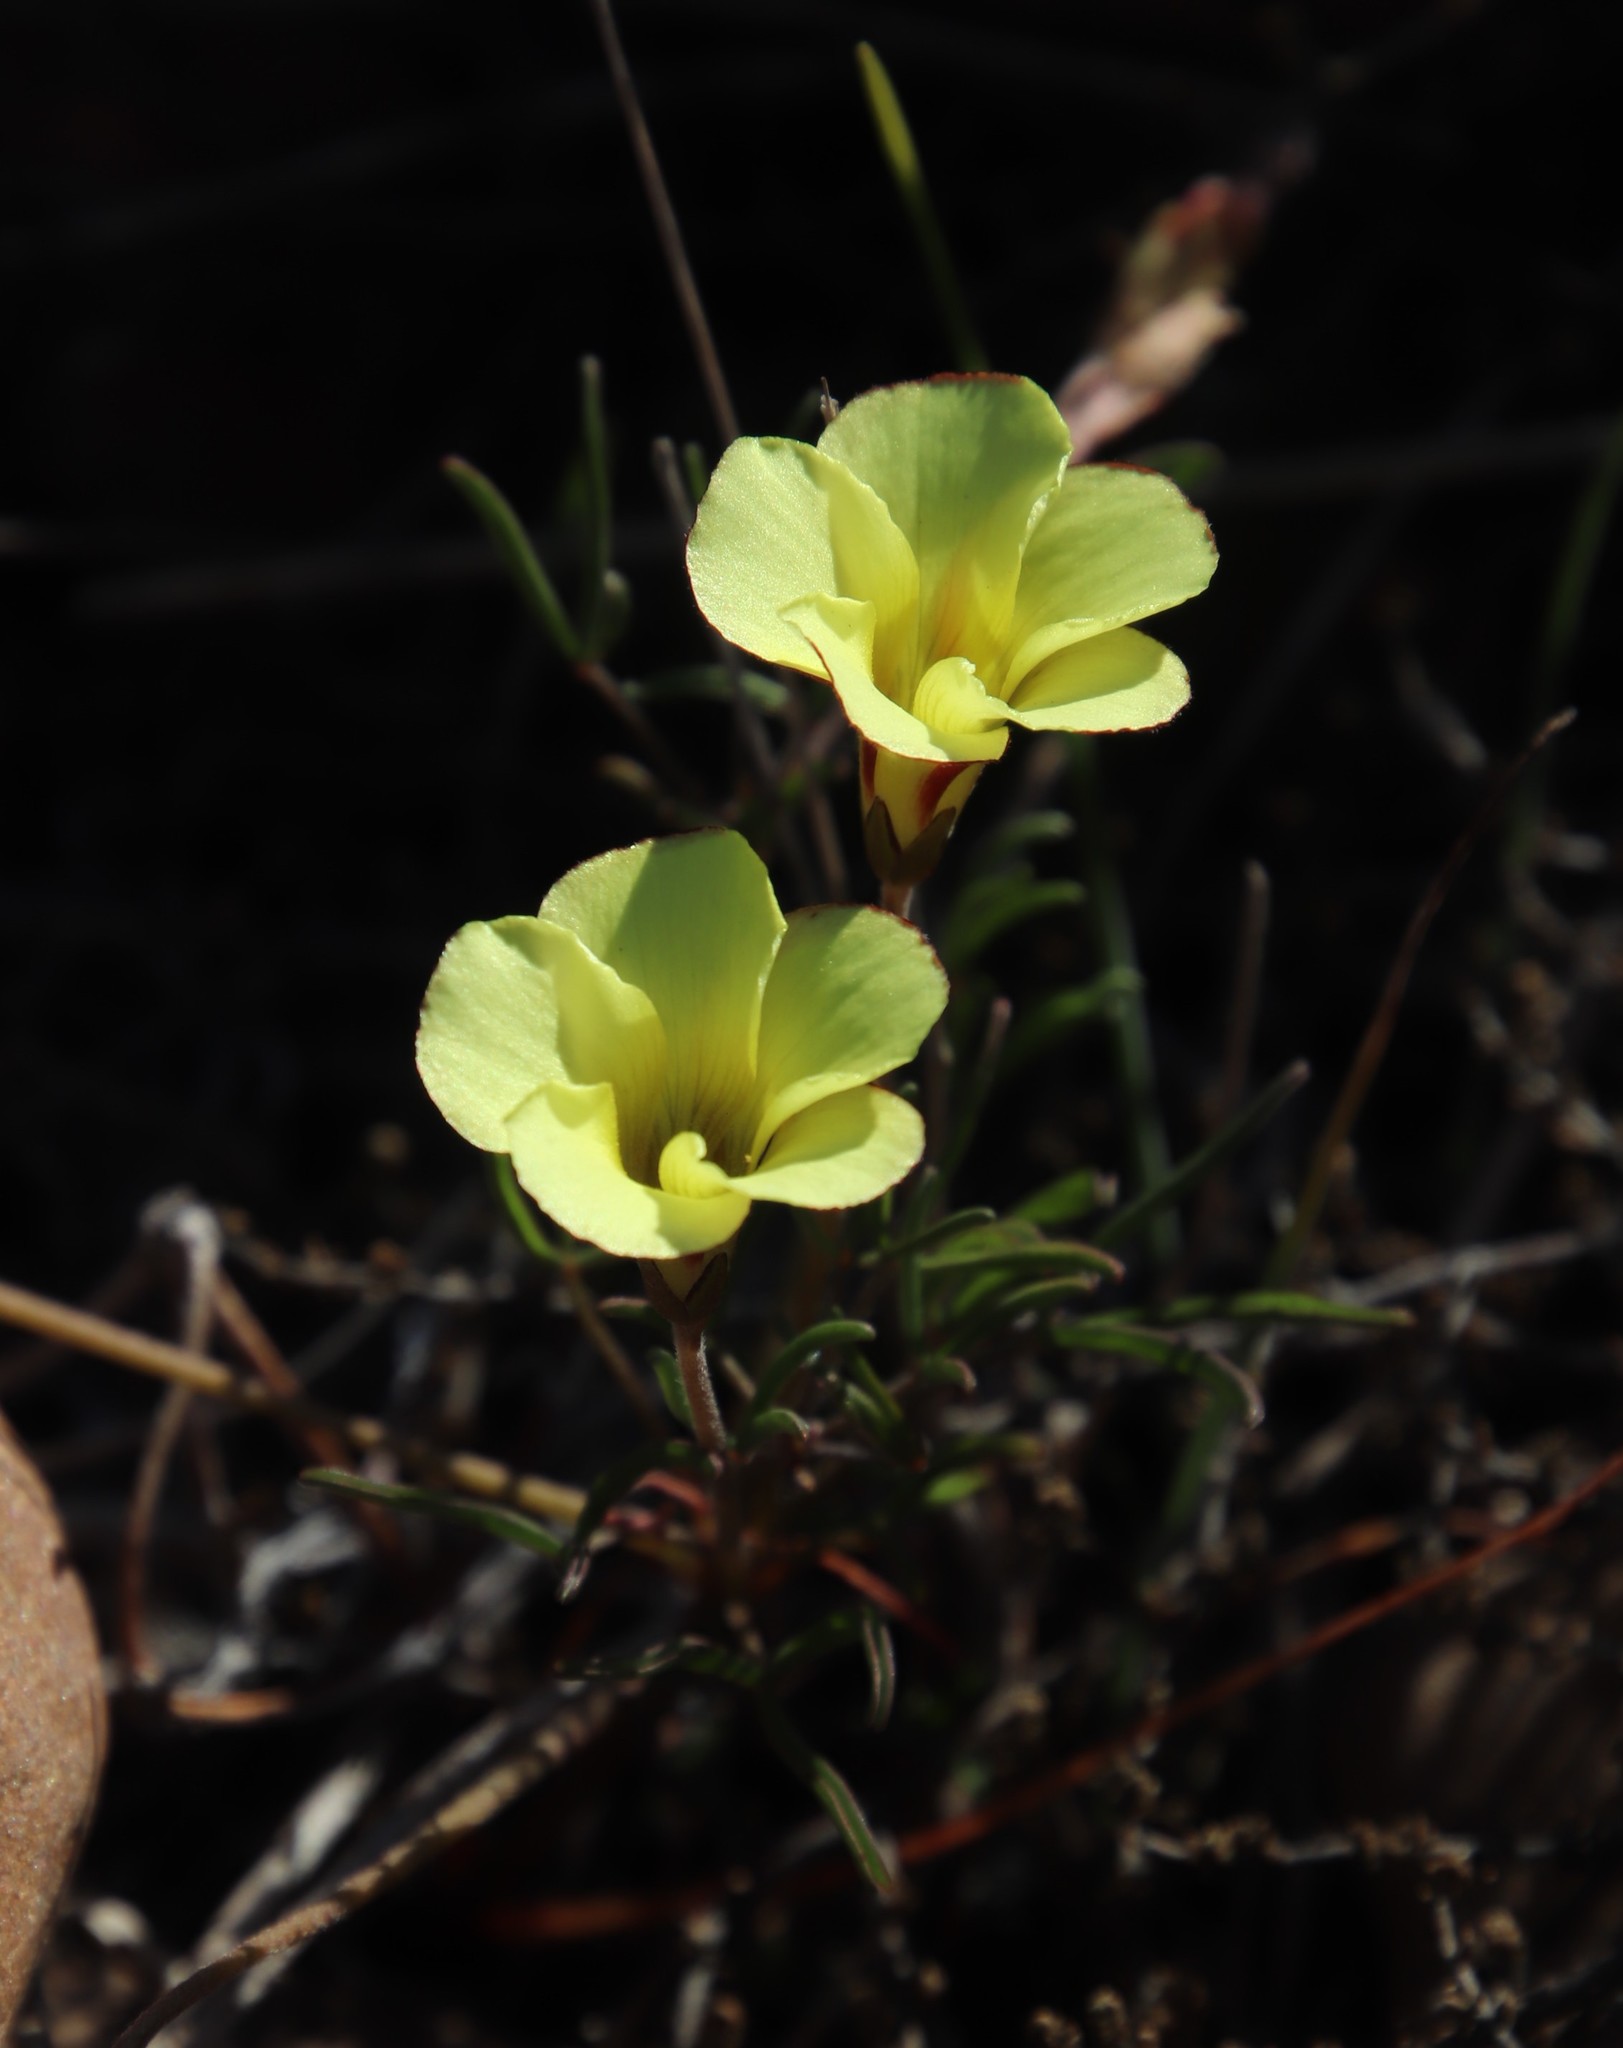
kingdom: Plantae
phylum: Tracheophyta
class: Magnoliopsida
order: Oxalidales
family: Oxalidaceae
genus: Oxalis
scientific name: Oxalis versicolor
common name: Peppermint rock oxalis
